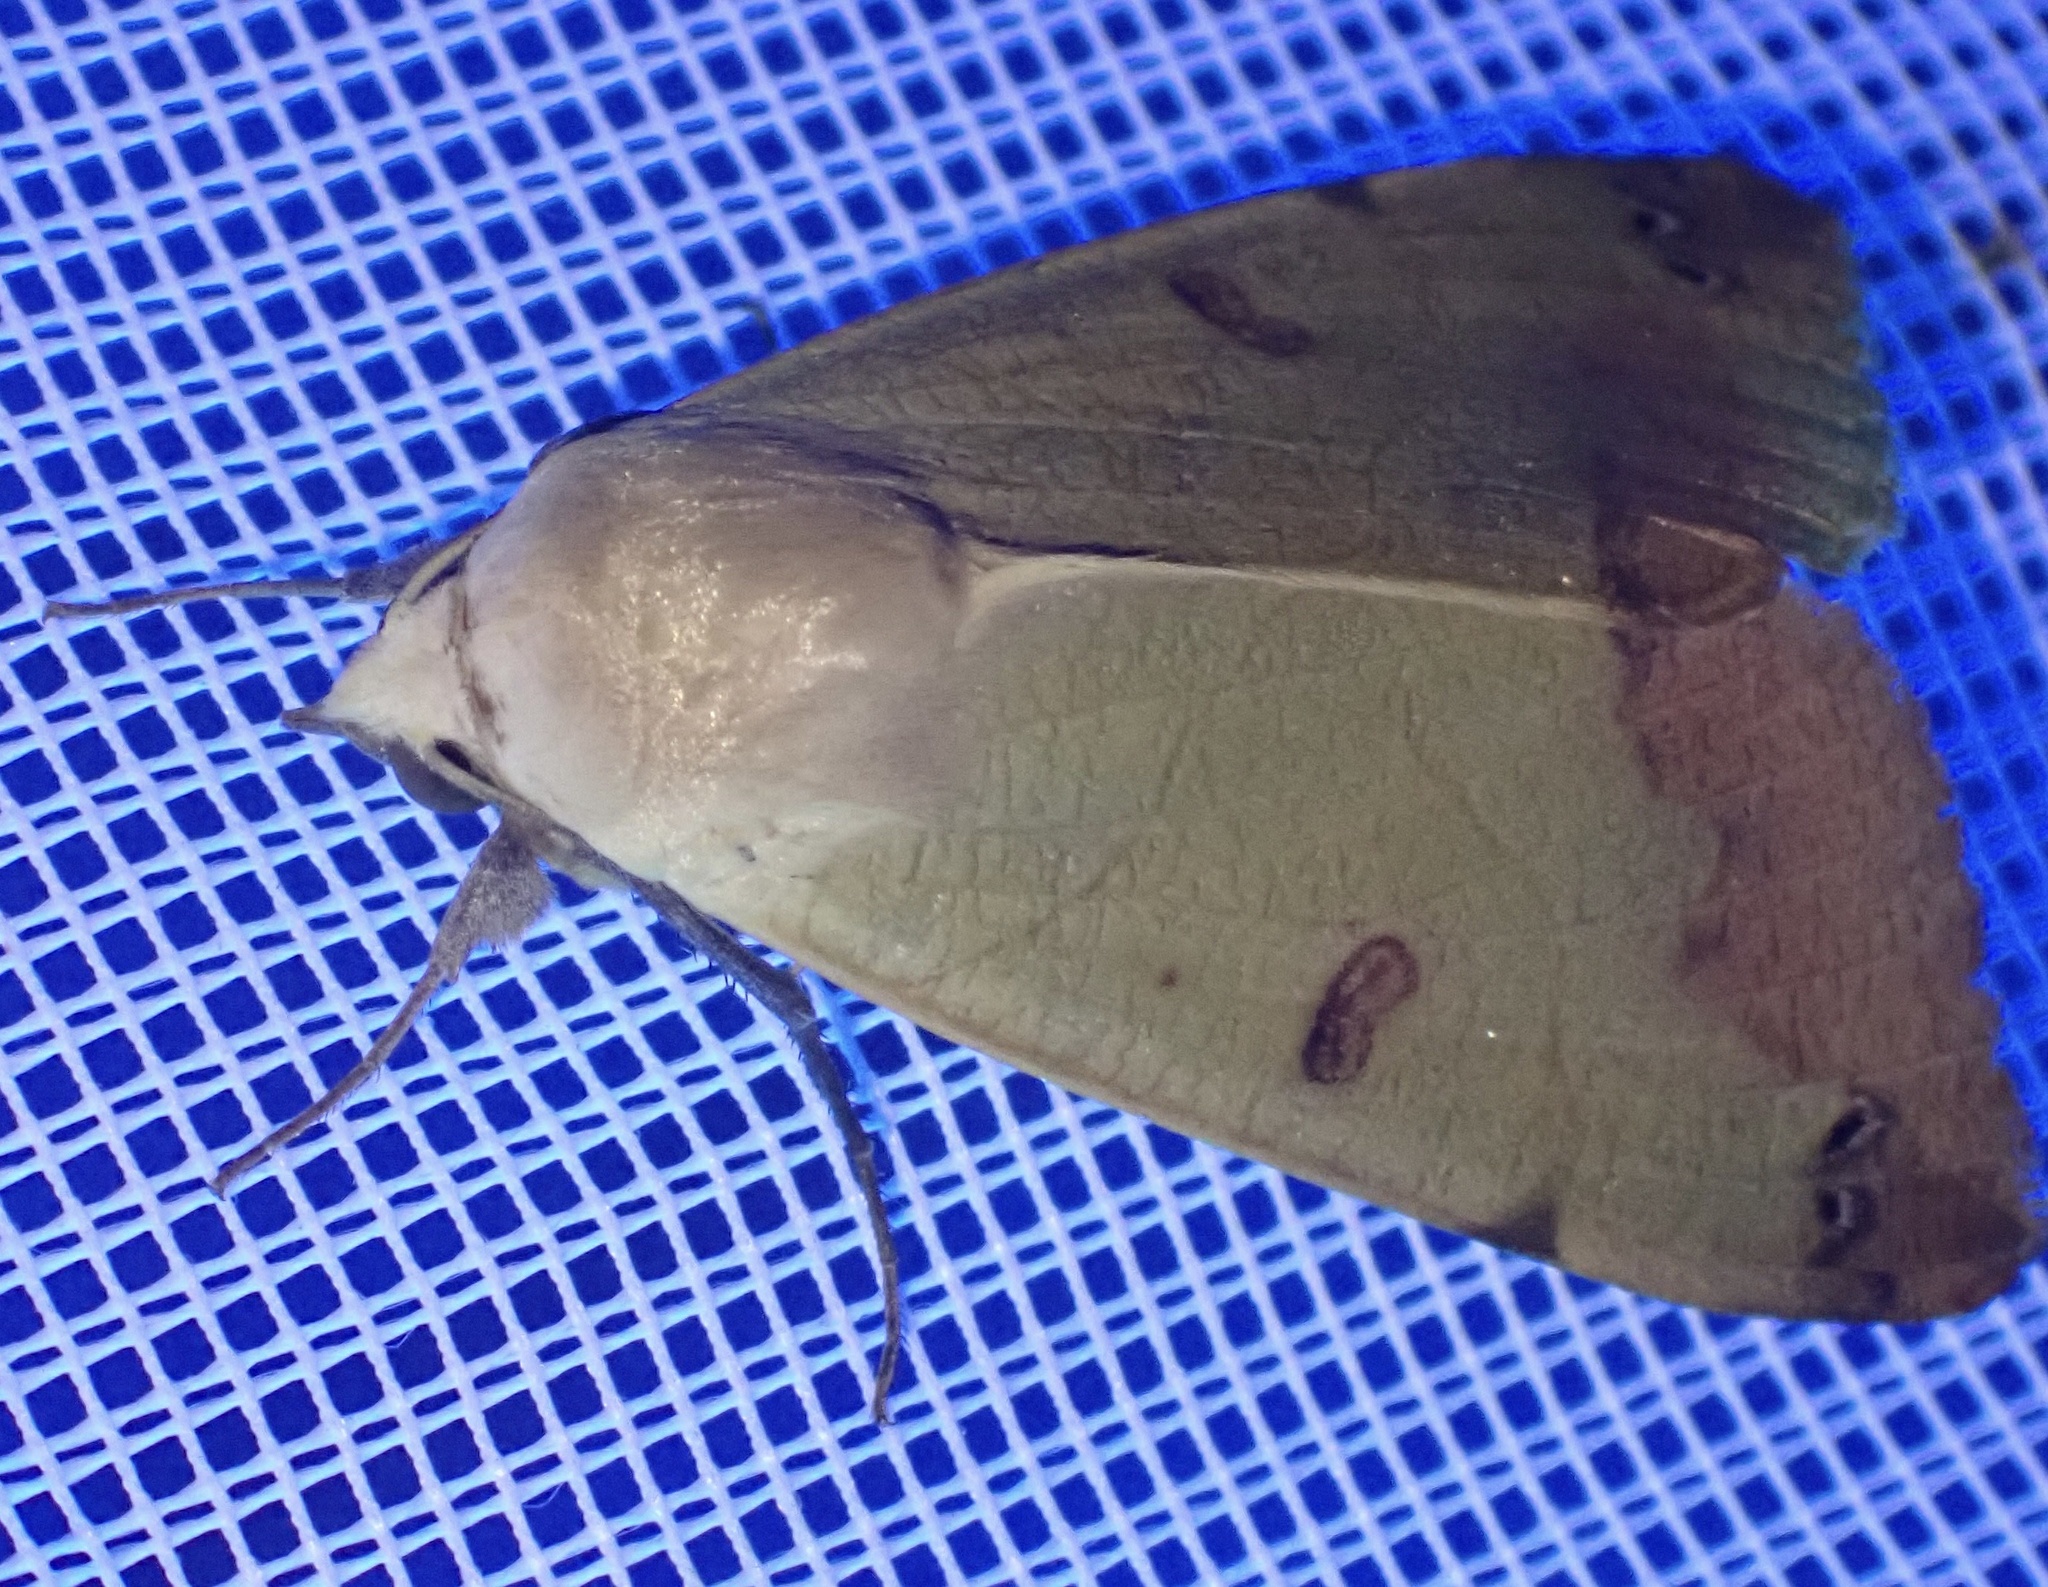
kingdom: Animalia
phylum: Arthropoda
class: Insecta
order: Lepidoptera
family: Erebidae
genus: Ophiusa
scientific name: Ophiusa tirhaca
